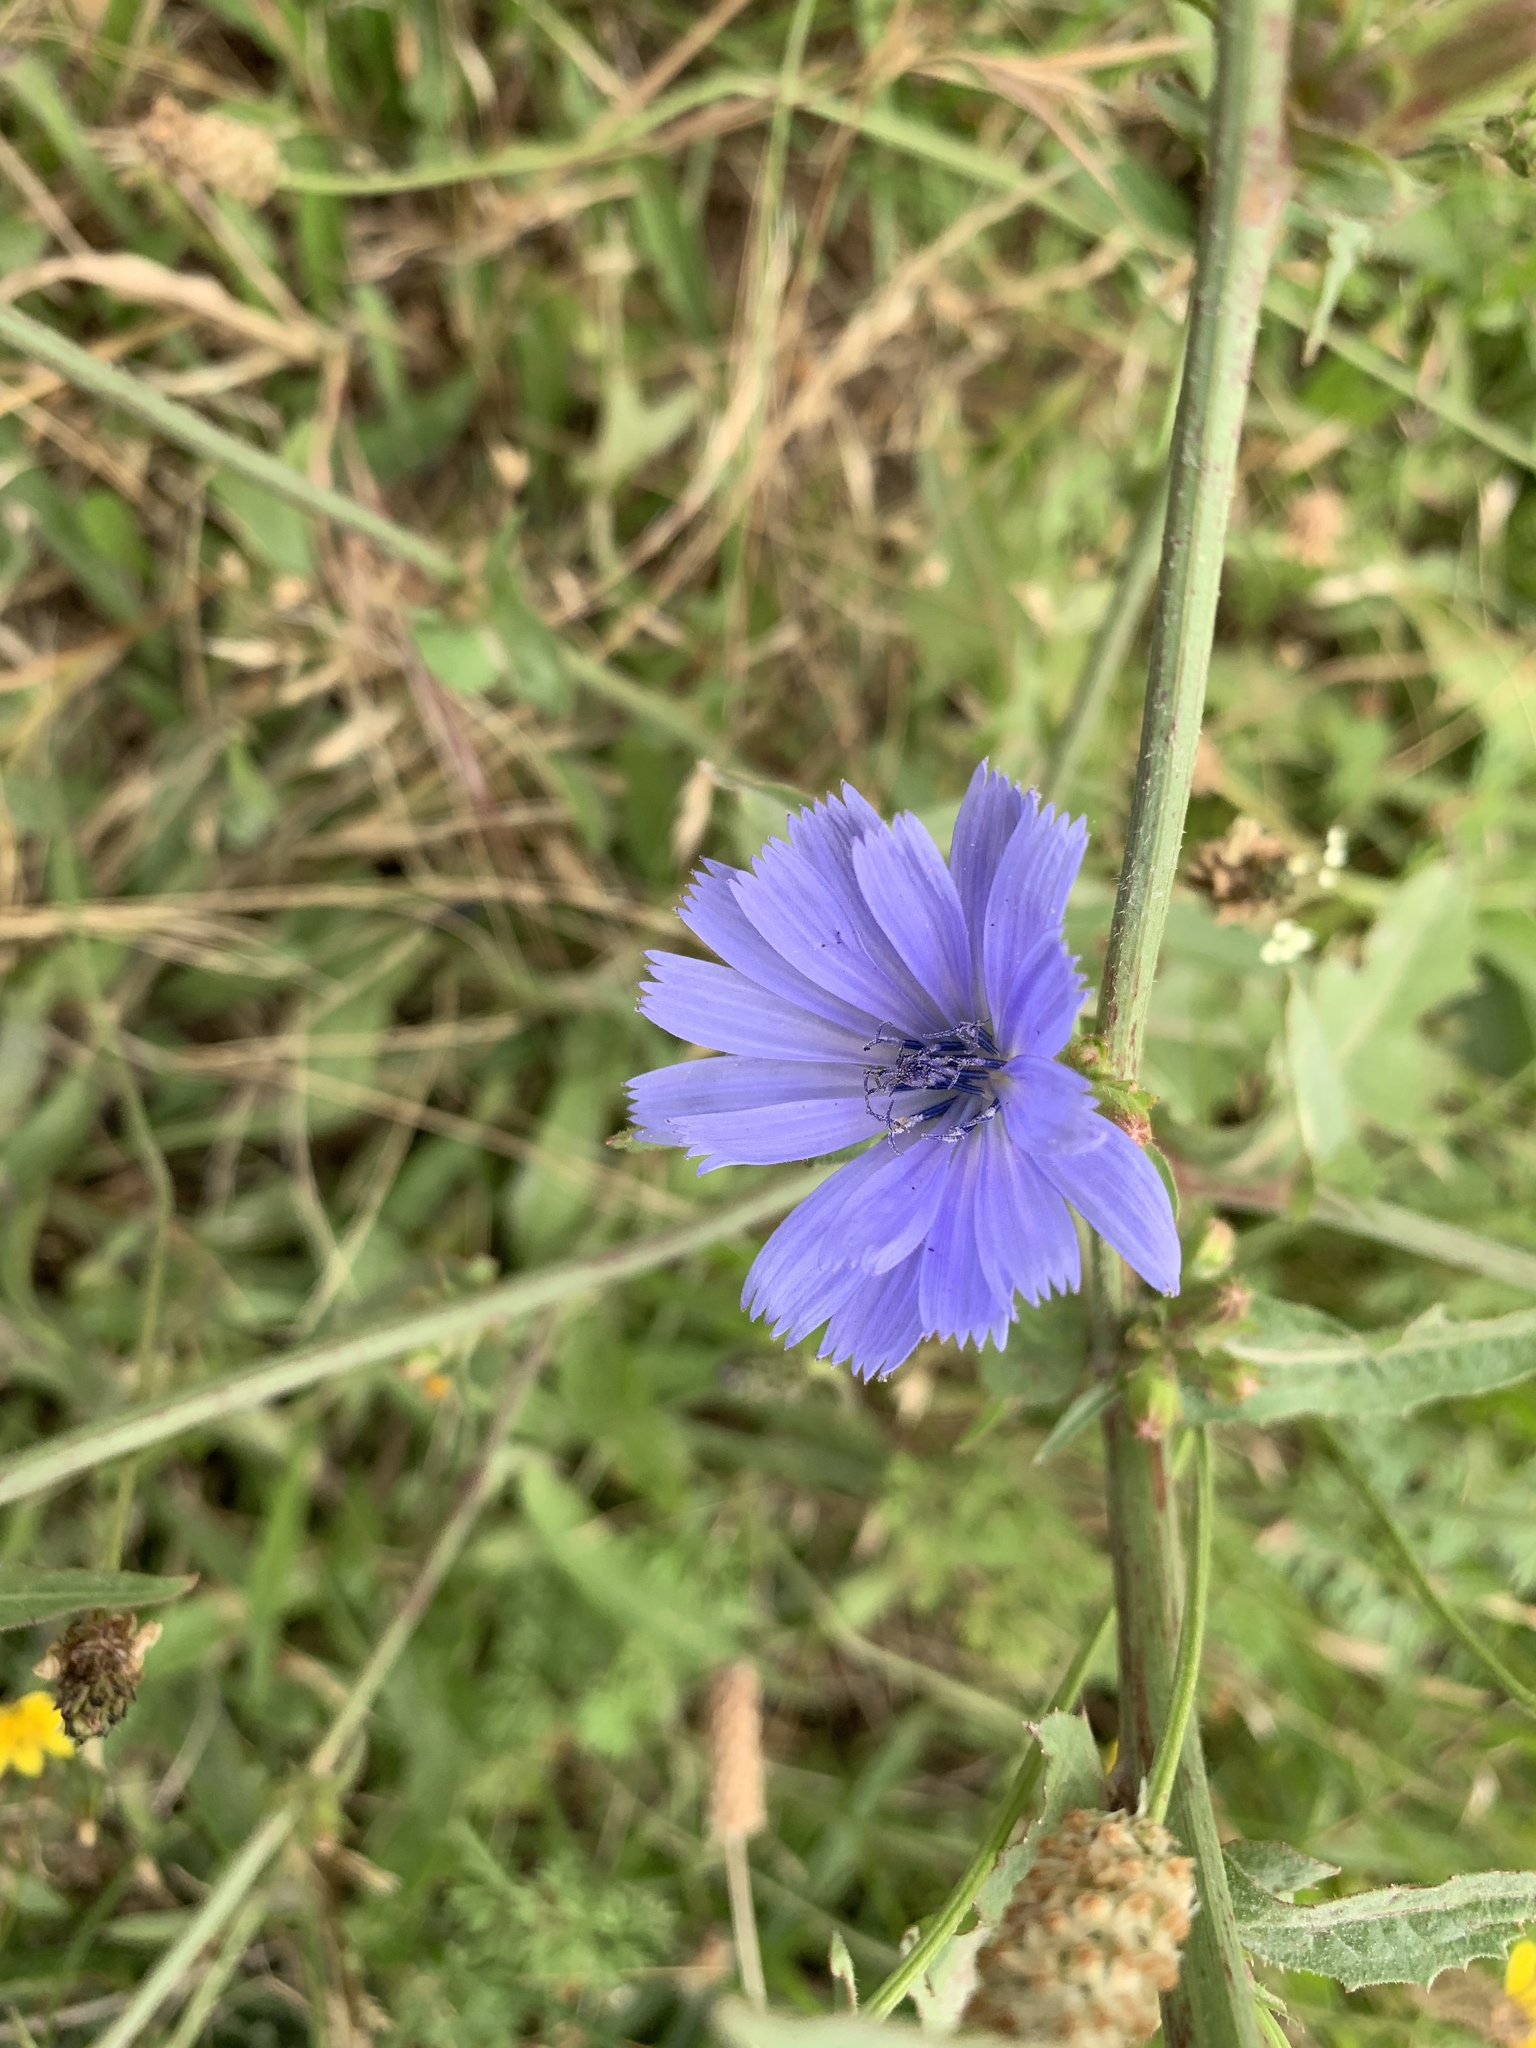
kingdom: Plantae
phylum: Tracheophyta
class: Magnoliopsida
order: Asterales
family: Asteraceae
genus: Cichorium
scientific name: Cichorium intybus
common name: Chicory
